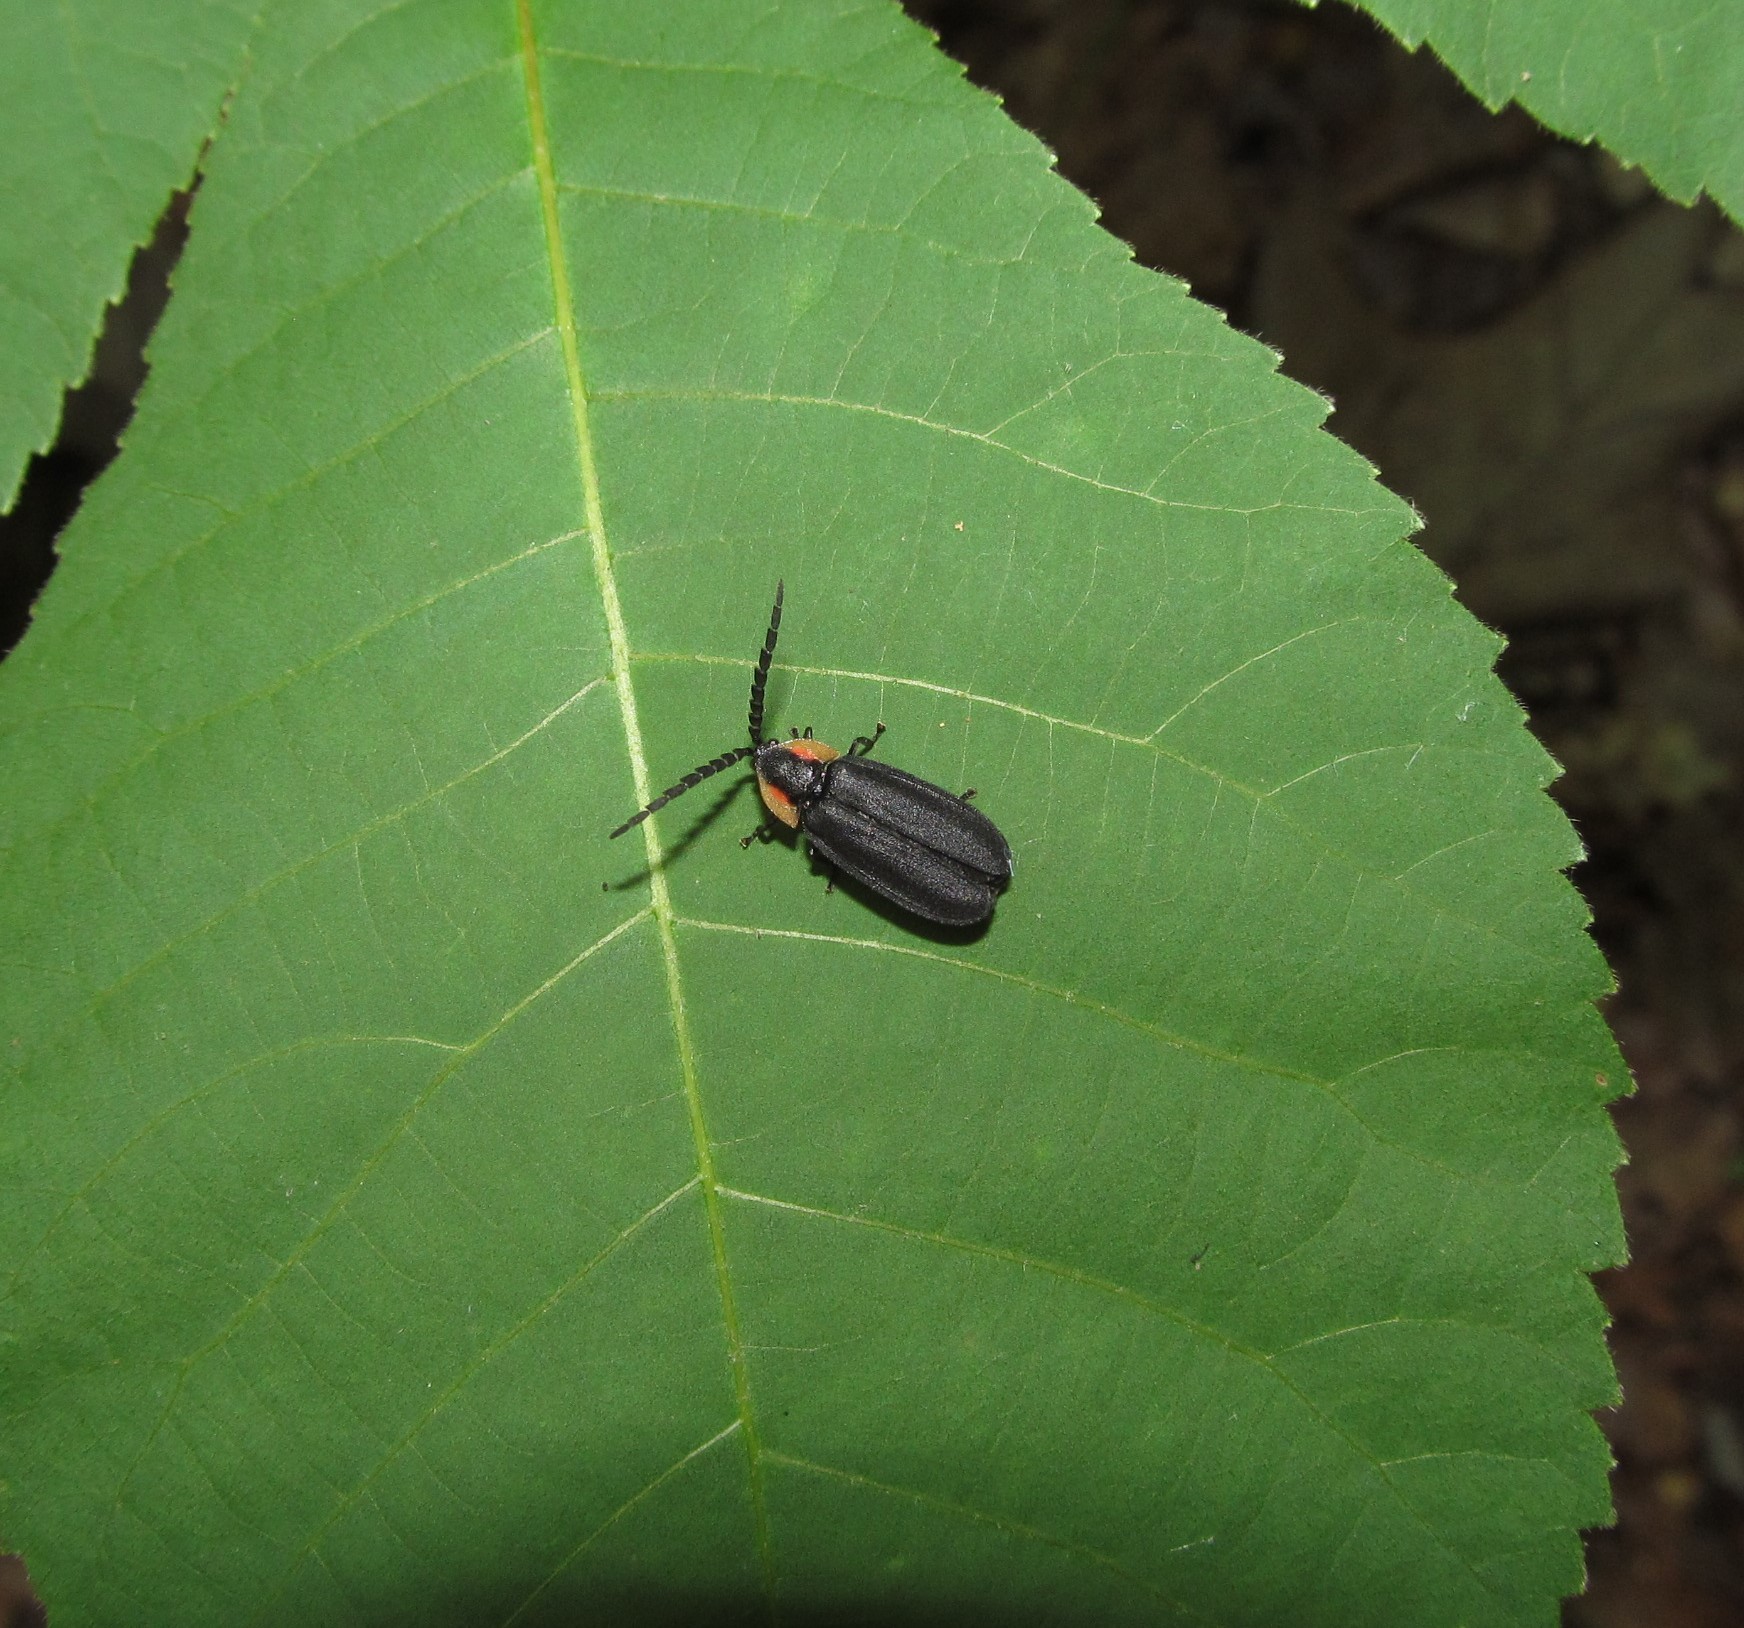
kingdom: Animalia
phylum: Arthropoda
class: Insecta
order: Coleoptera
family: Lampyridae
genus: Lucidota
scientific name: Lucidota atra
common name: Black firefly
